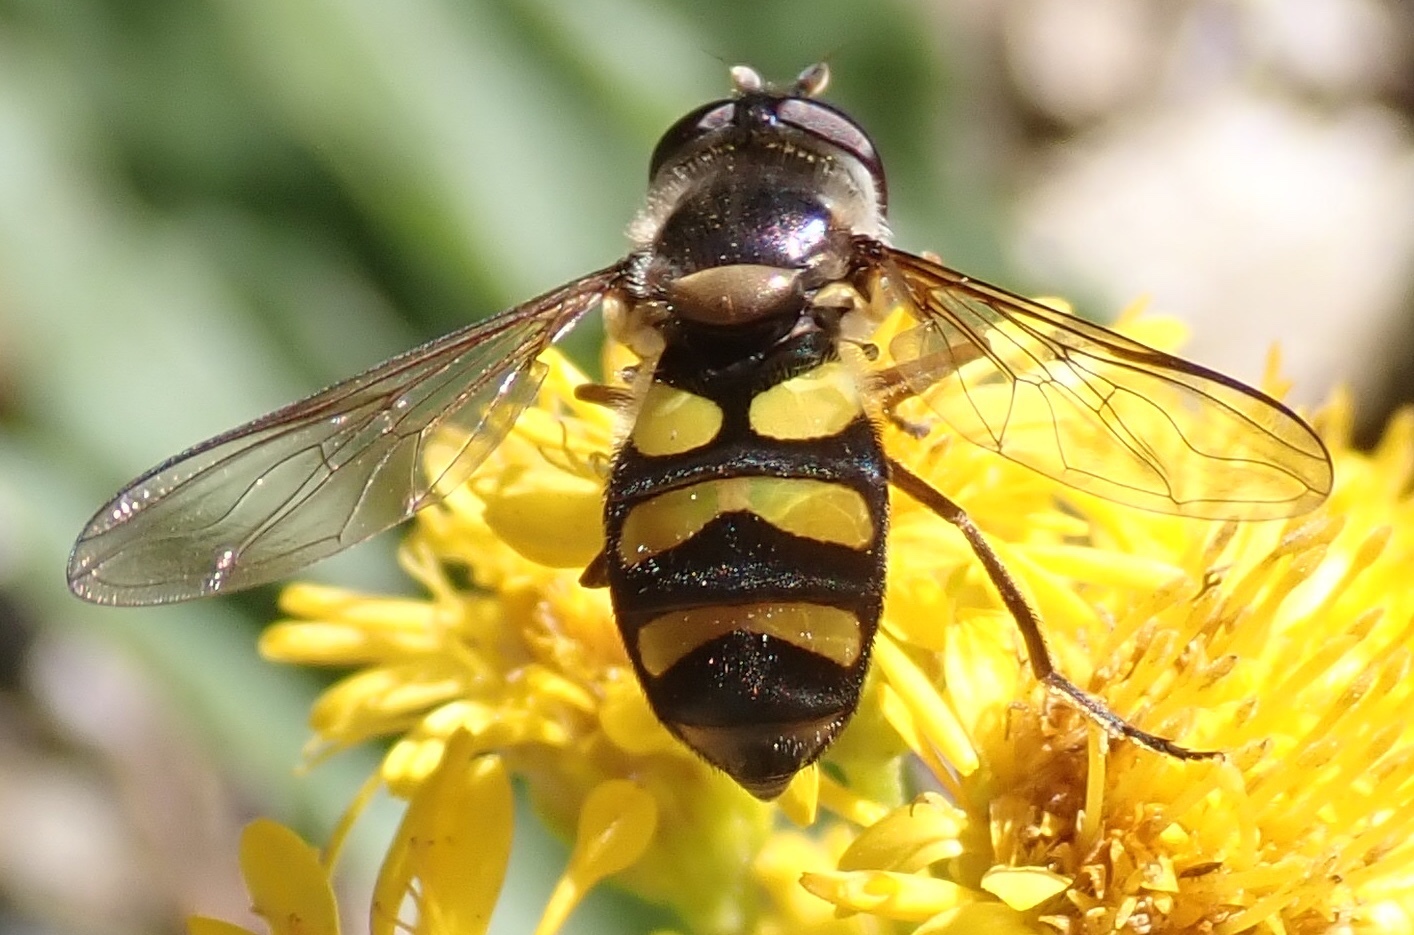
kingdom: Animalia
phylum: Arthropoda
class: Insecta
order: Diptera
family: Syrphidae
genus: Didea
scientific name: Didea fuscipes
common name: Undivided lucent
